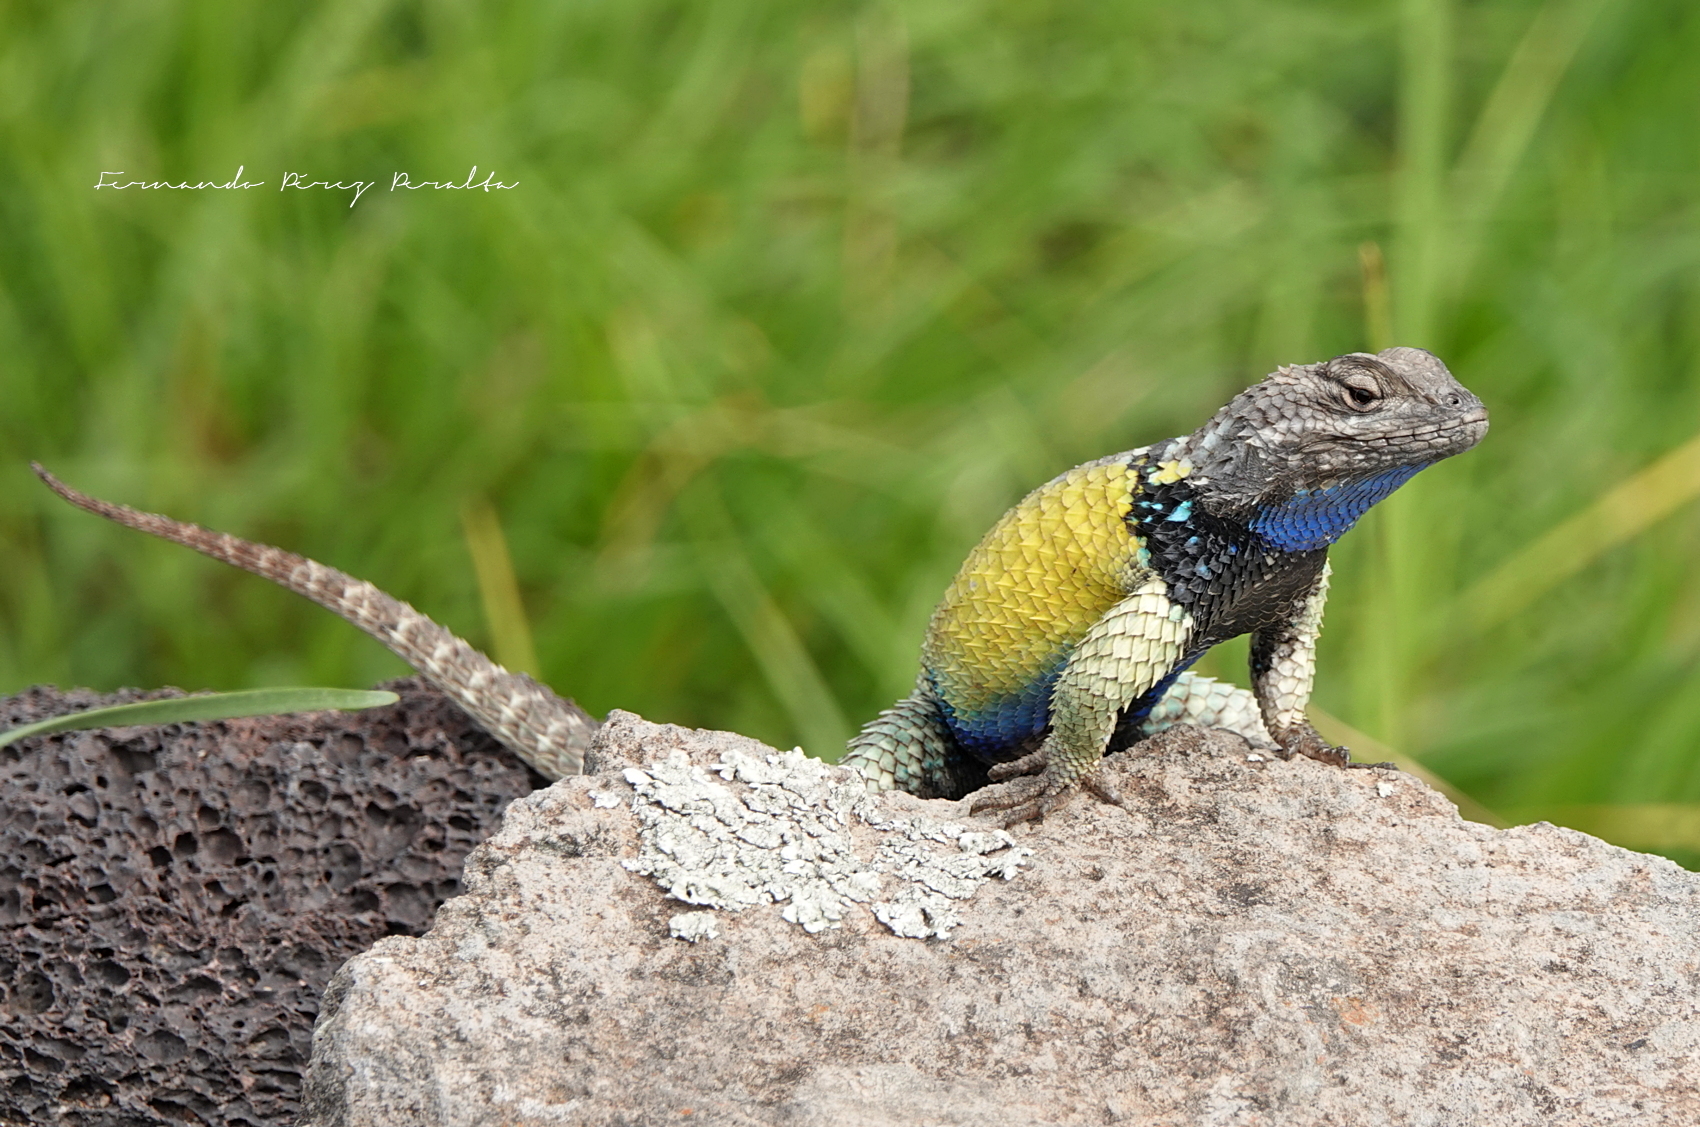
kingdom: Animalia
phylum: Chordata
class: Squamata
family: Phrynosomatidae
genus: Sceloporus
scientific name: Sceloporus torquatus
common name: Central plateau torquate lizard [melanogaster]
